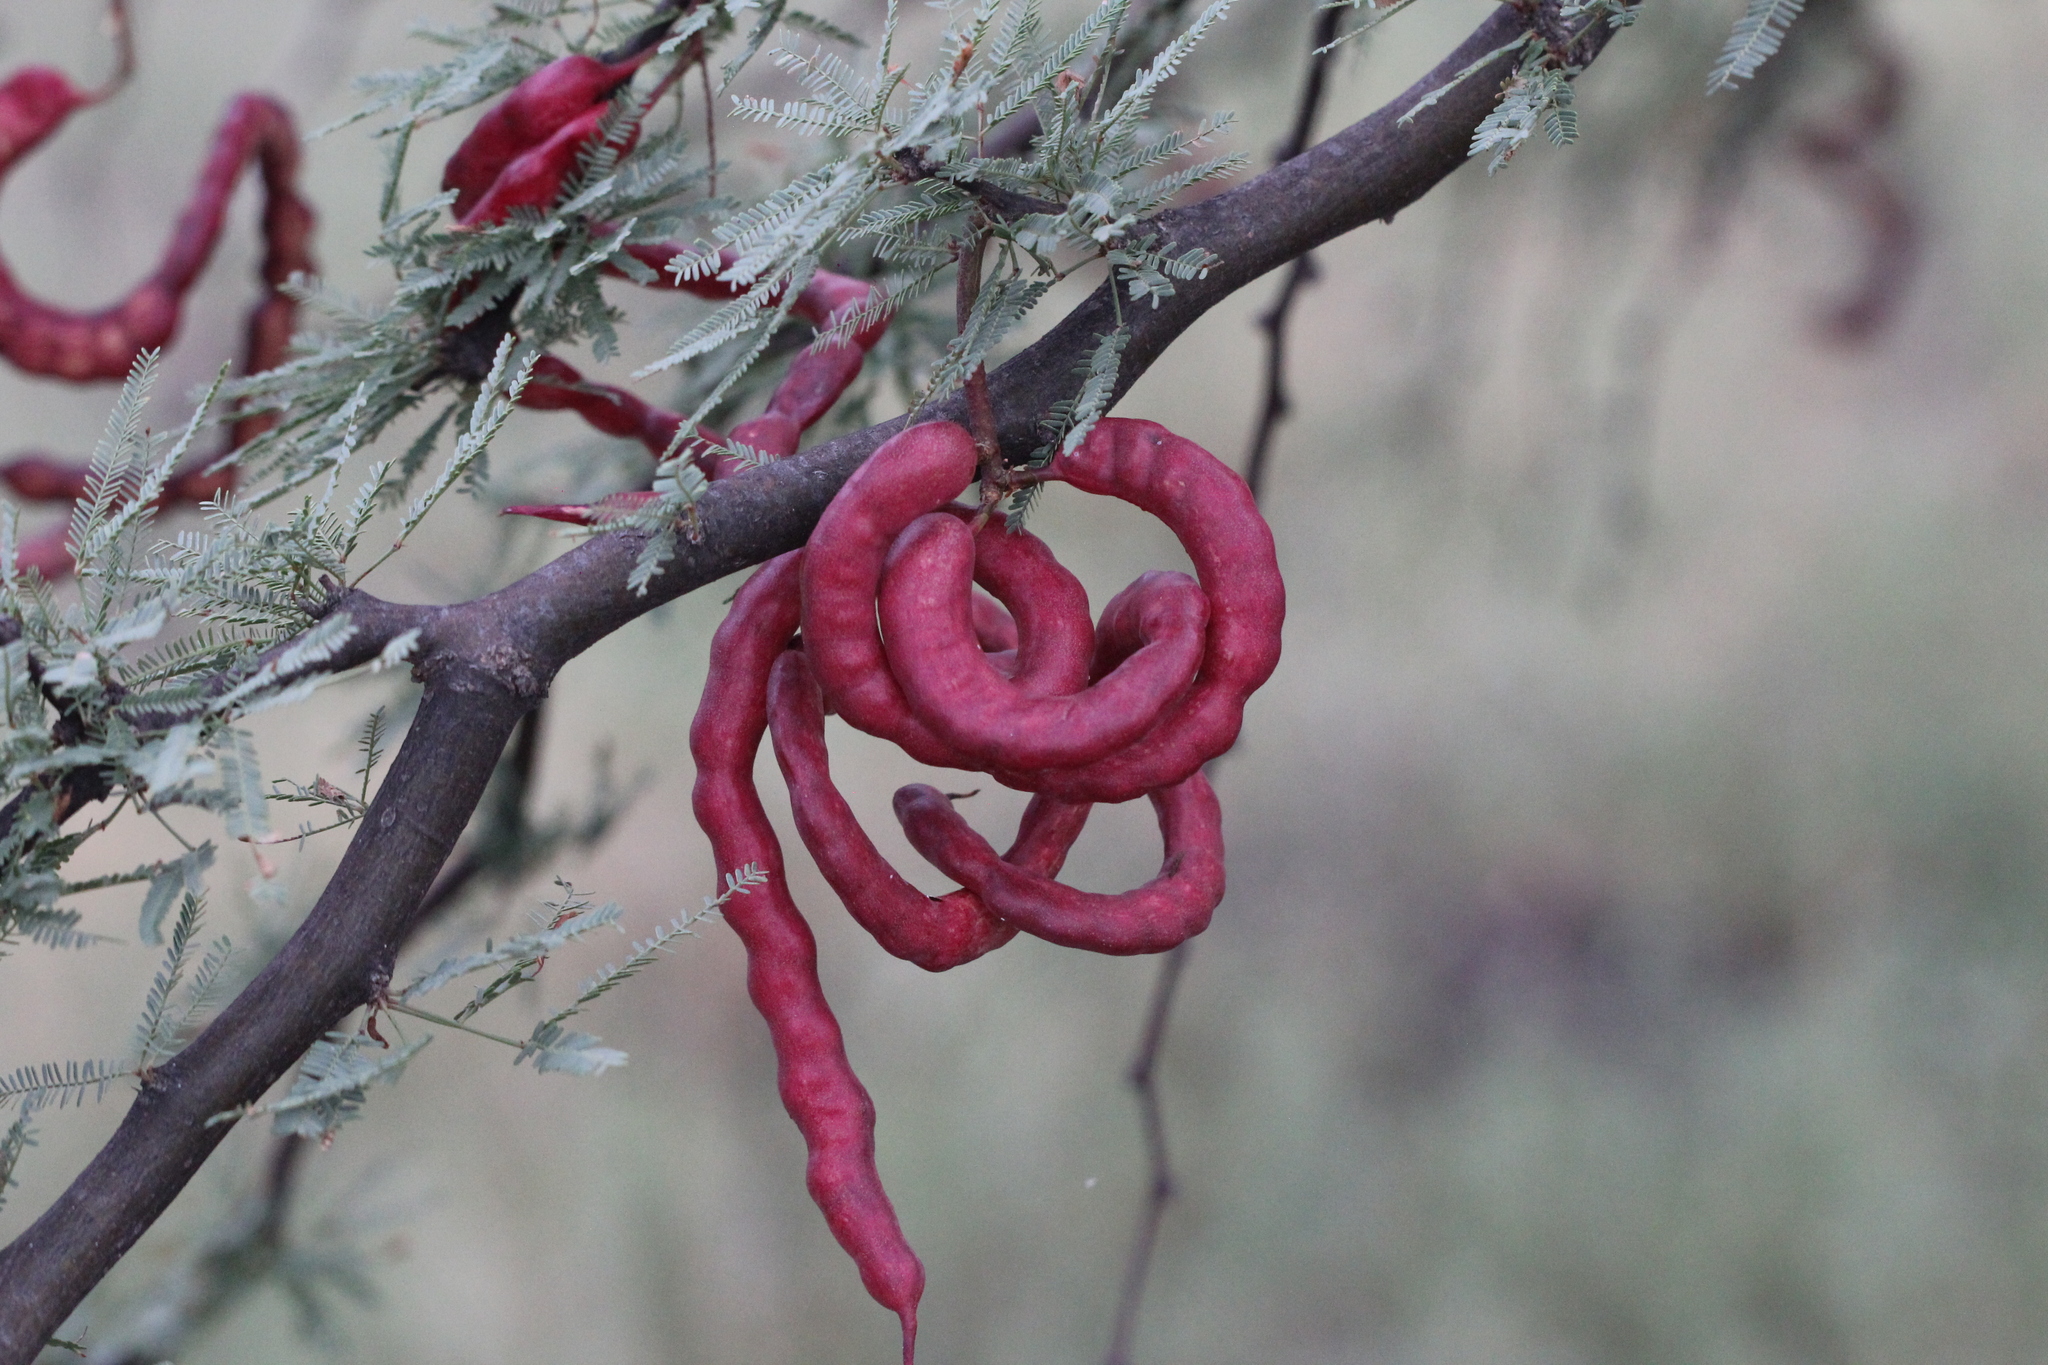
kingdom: Plantae
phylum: Tracheophyta
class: Magnoliopsida
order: Fabales
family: Fabaceae
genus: Prosopis
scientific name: Prosopis caldenia
